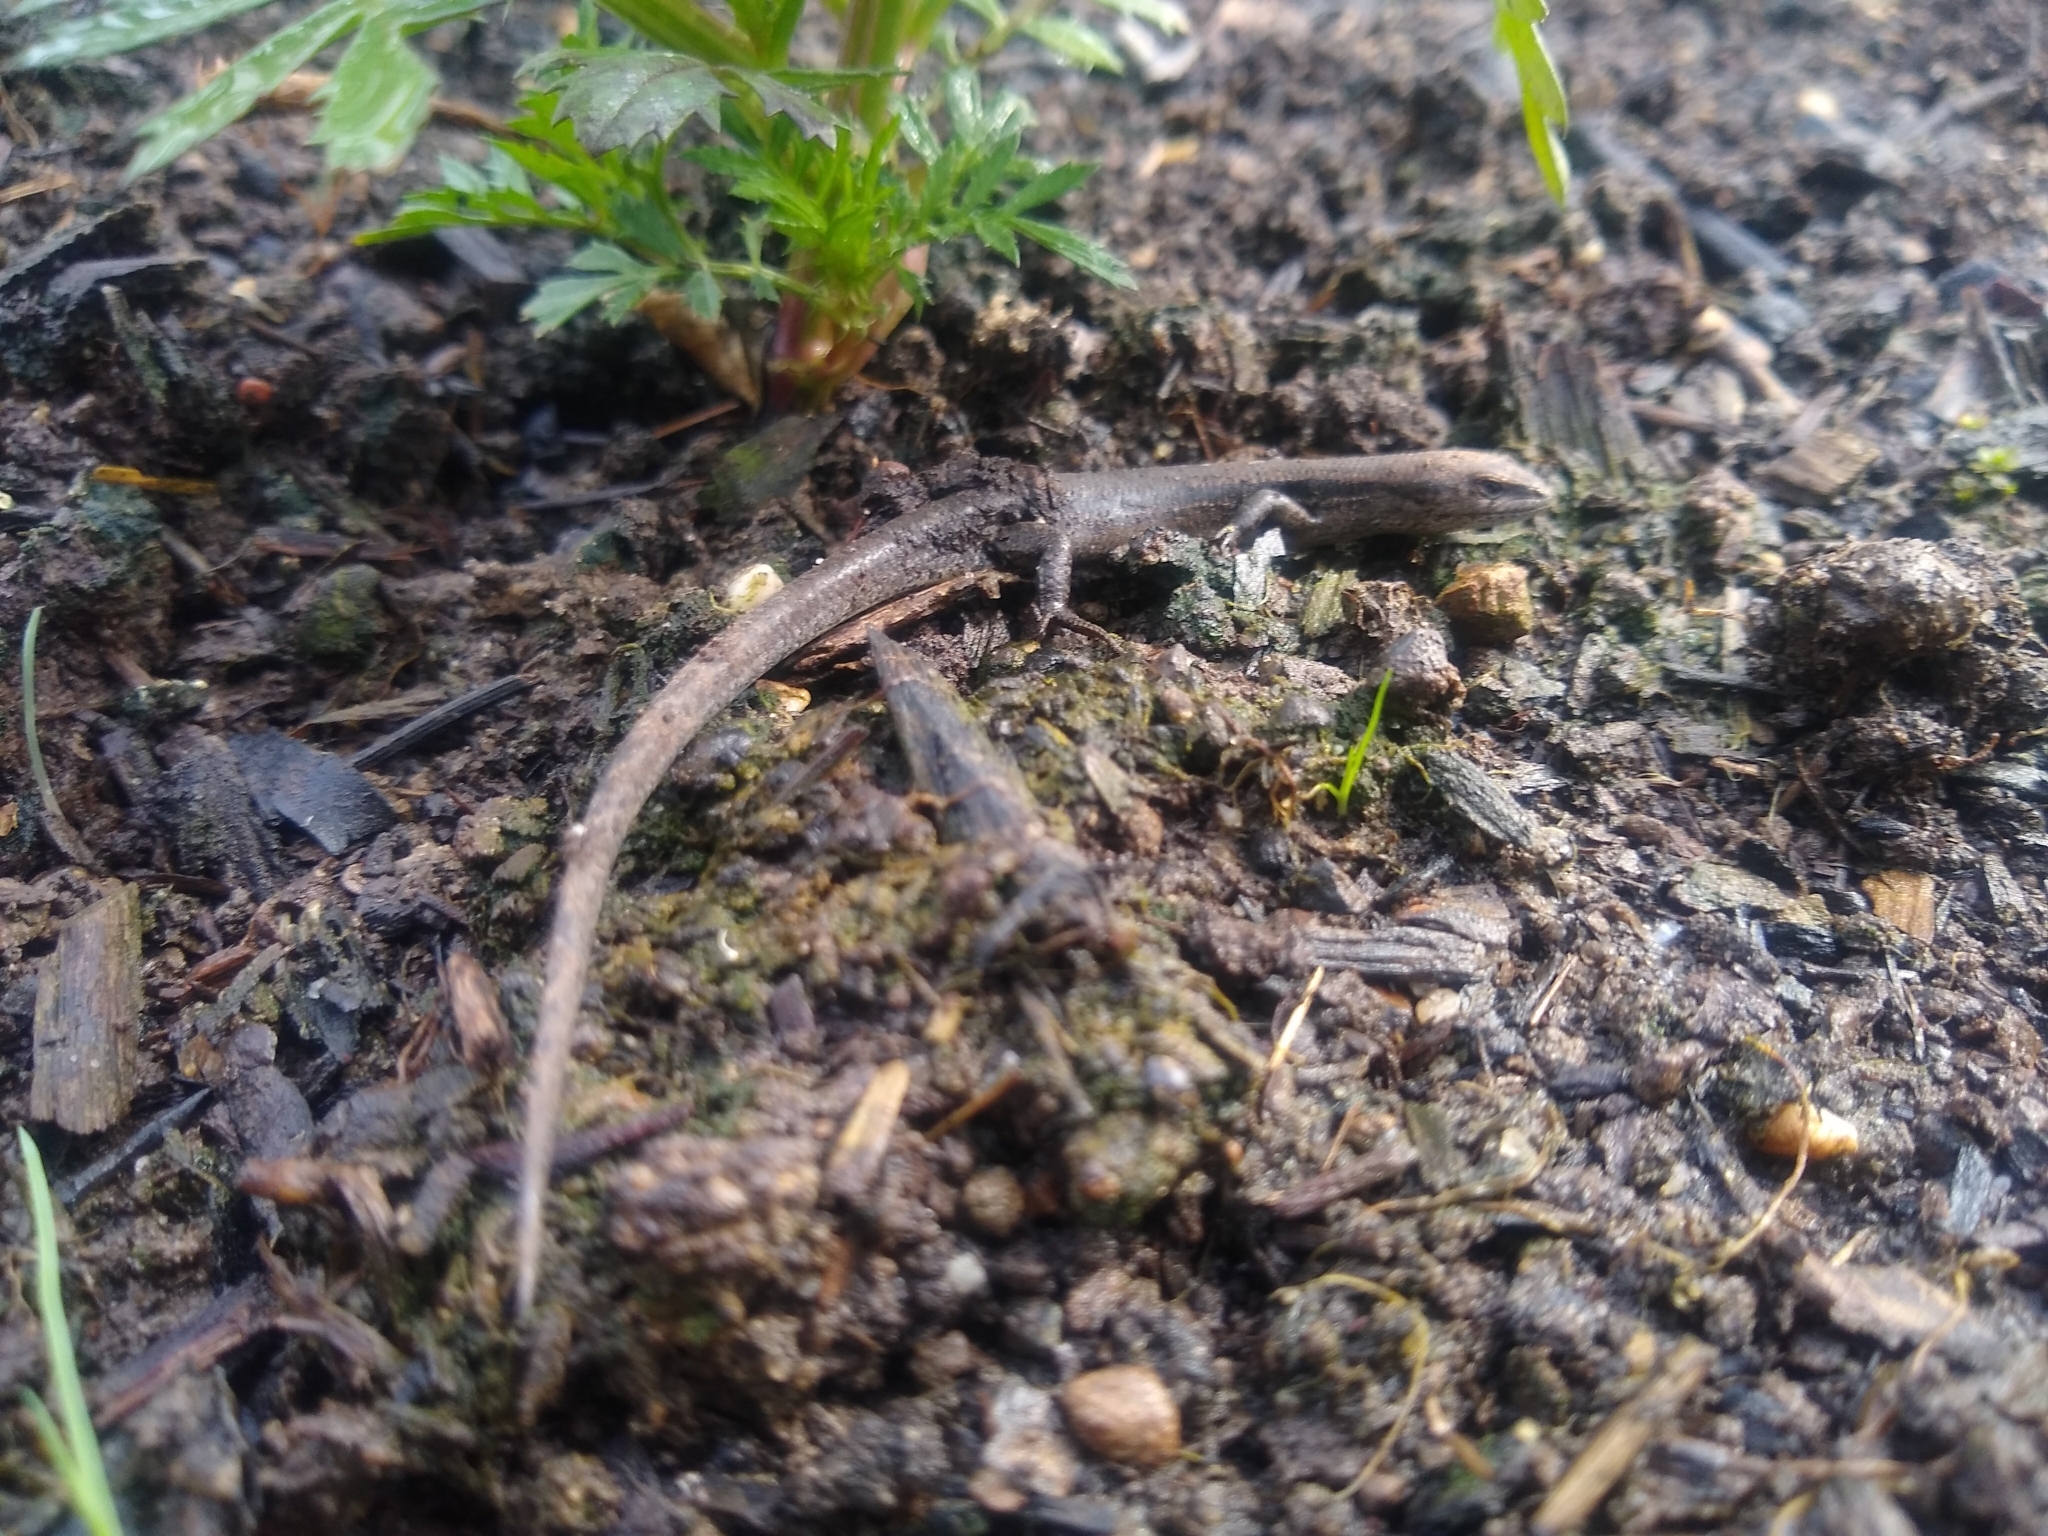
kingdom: Animalia
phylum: Chordata
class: Squamata
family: Scincidae
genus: Lampropholis
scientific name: Lampropholis guichenoti
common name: Garden skink
